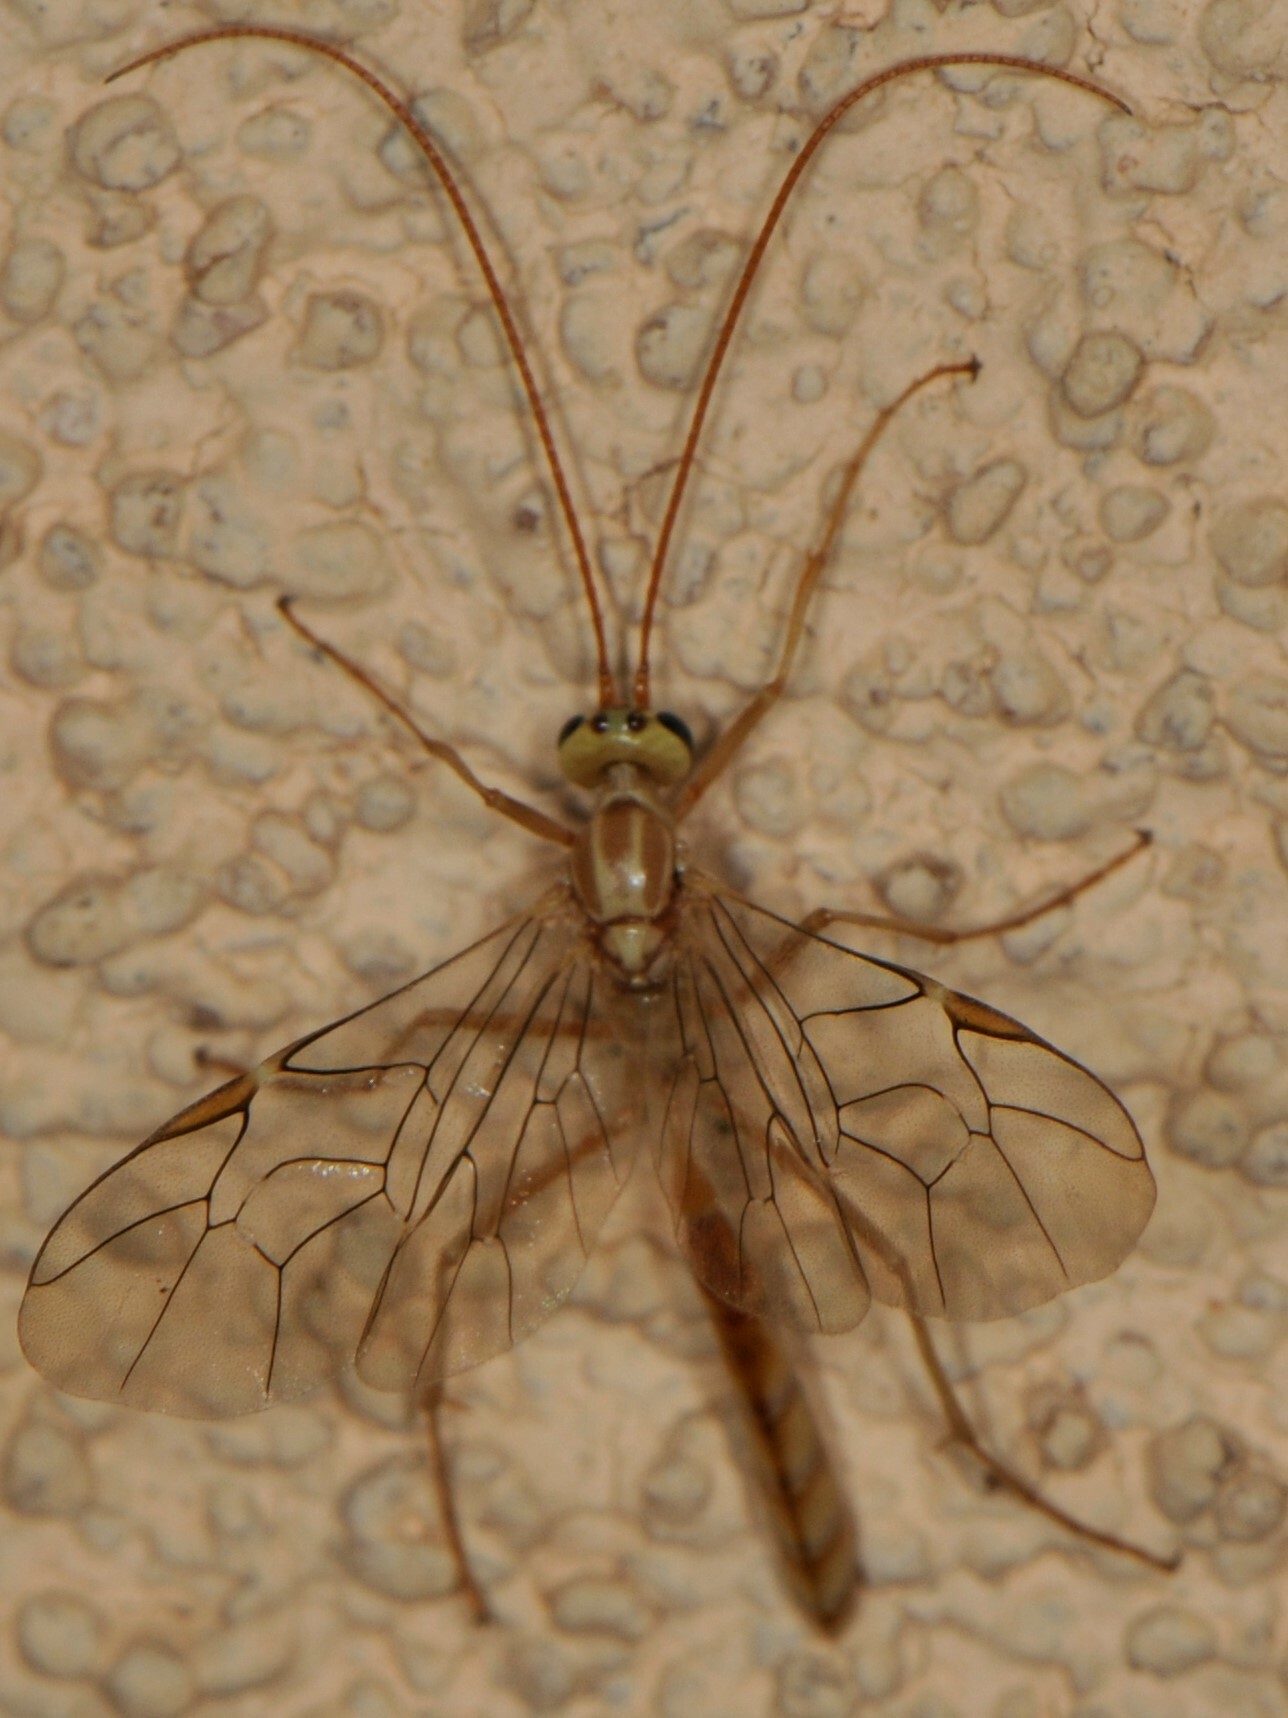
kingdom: Animalia
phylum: Arthropoda
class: Insecta
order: Hymenoptera
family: Ichneumonidae
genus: Eremotylus
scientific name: Eremotylus
